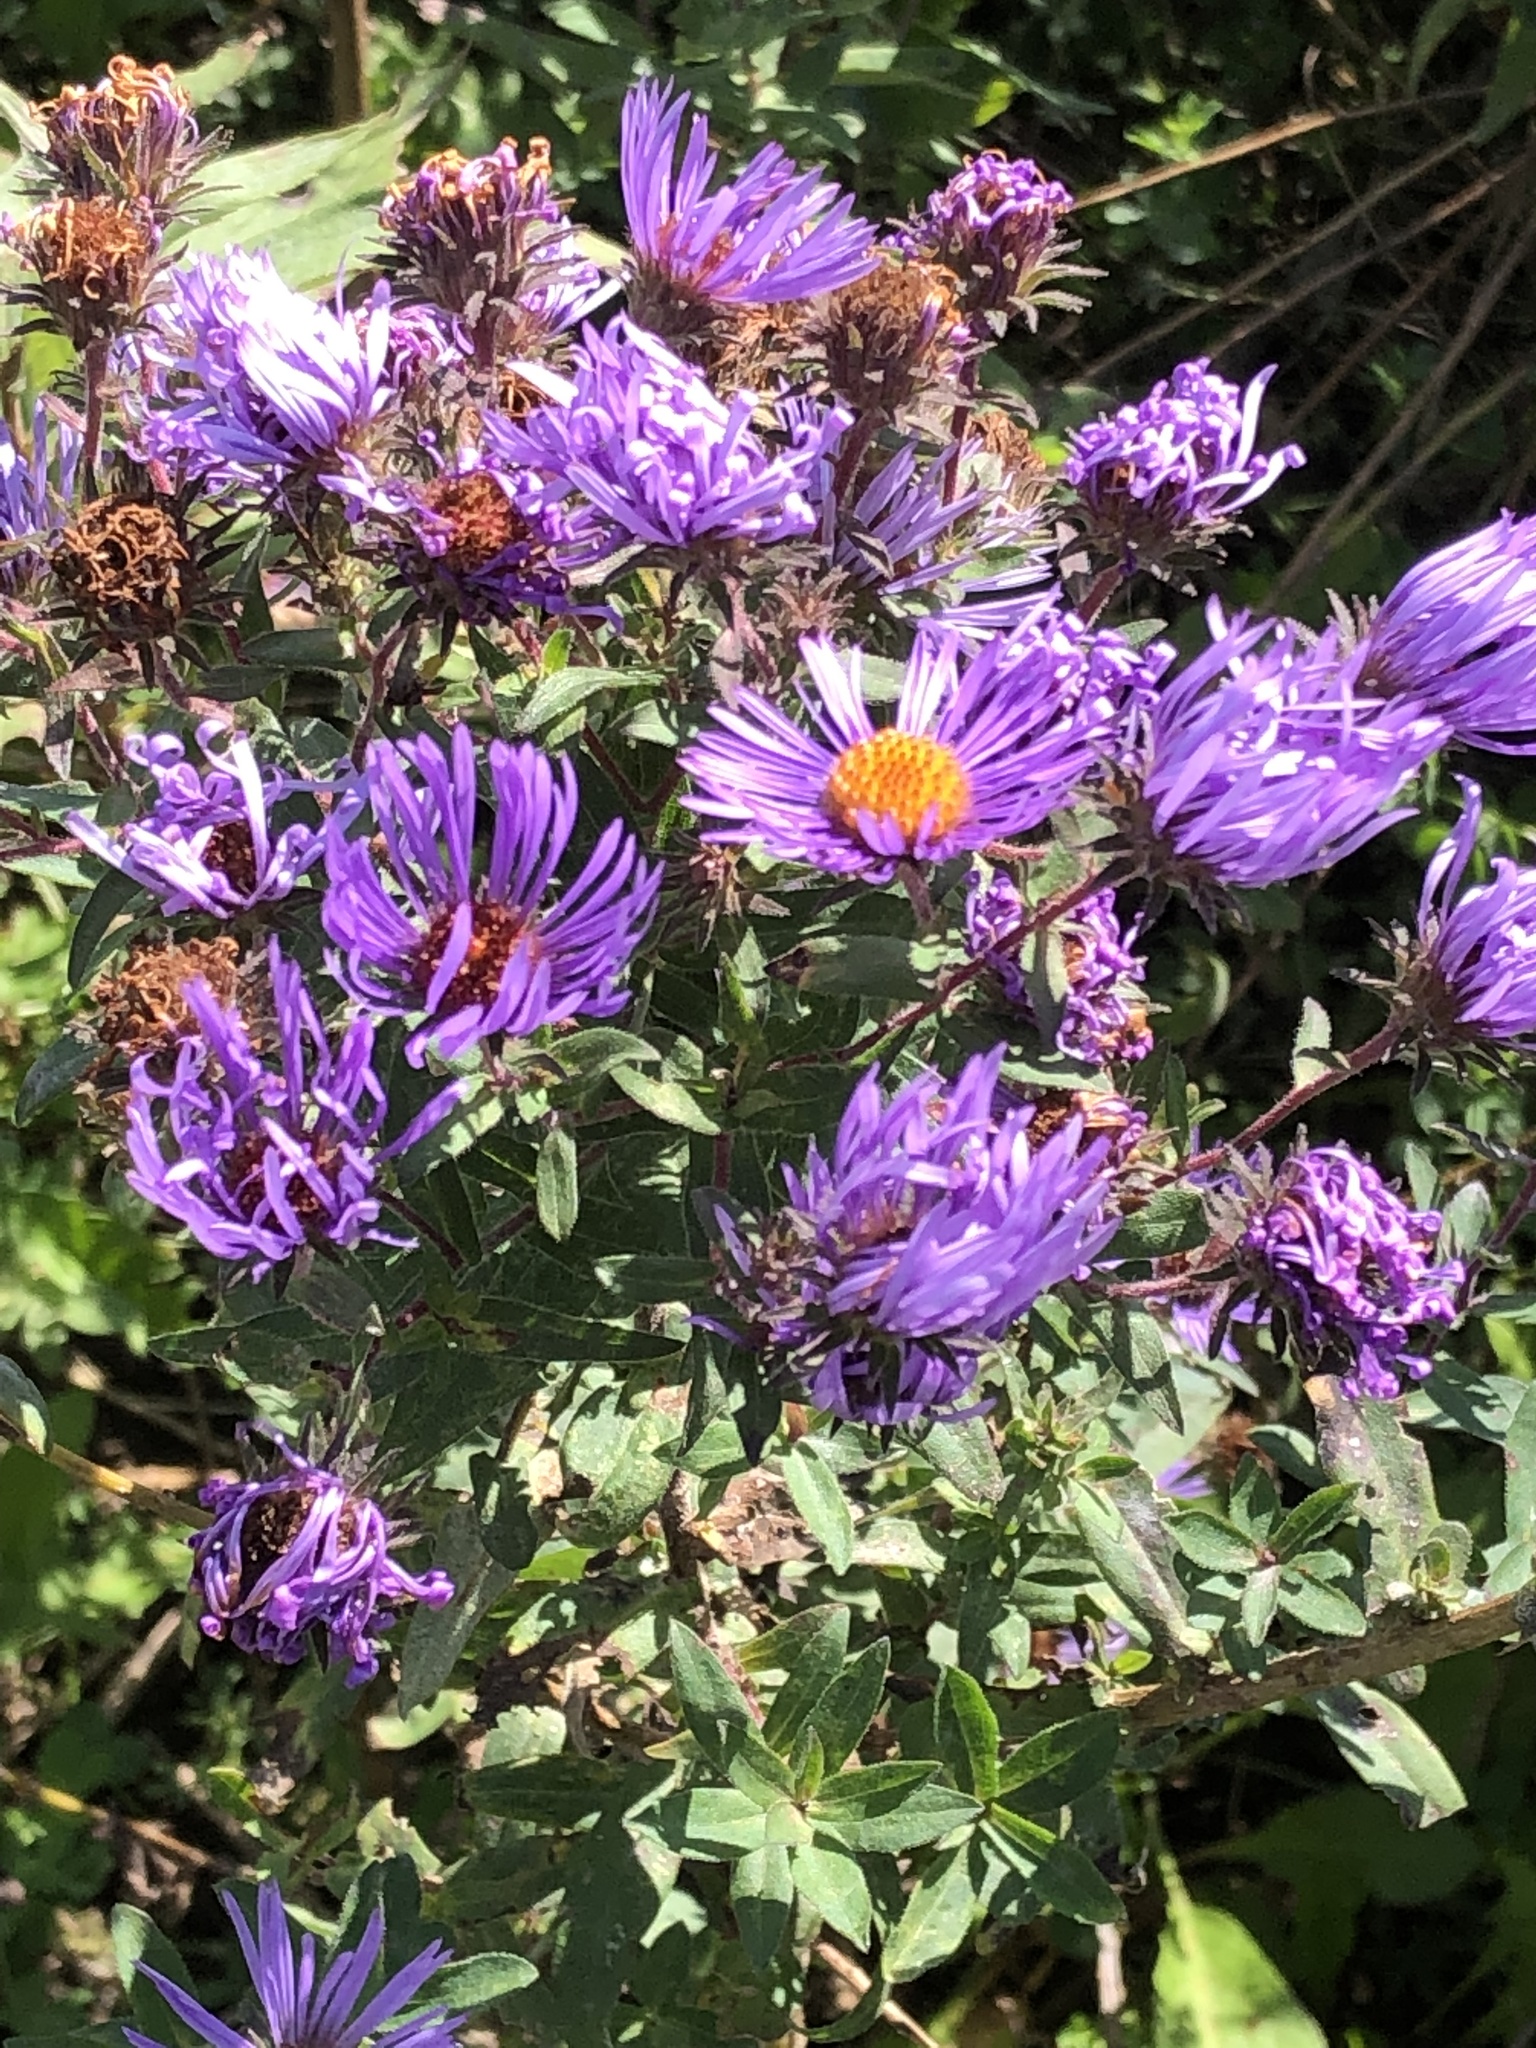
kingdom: Plantae
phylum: Tracheophyta
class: Magnoliopsida
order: Asterales
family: Asteraceae
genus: Symphyotrichum
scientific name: Symphyotrichum novae-angliae
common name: Michaelmas daisy
